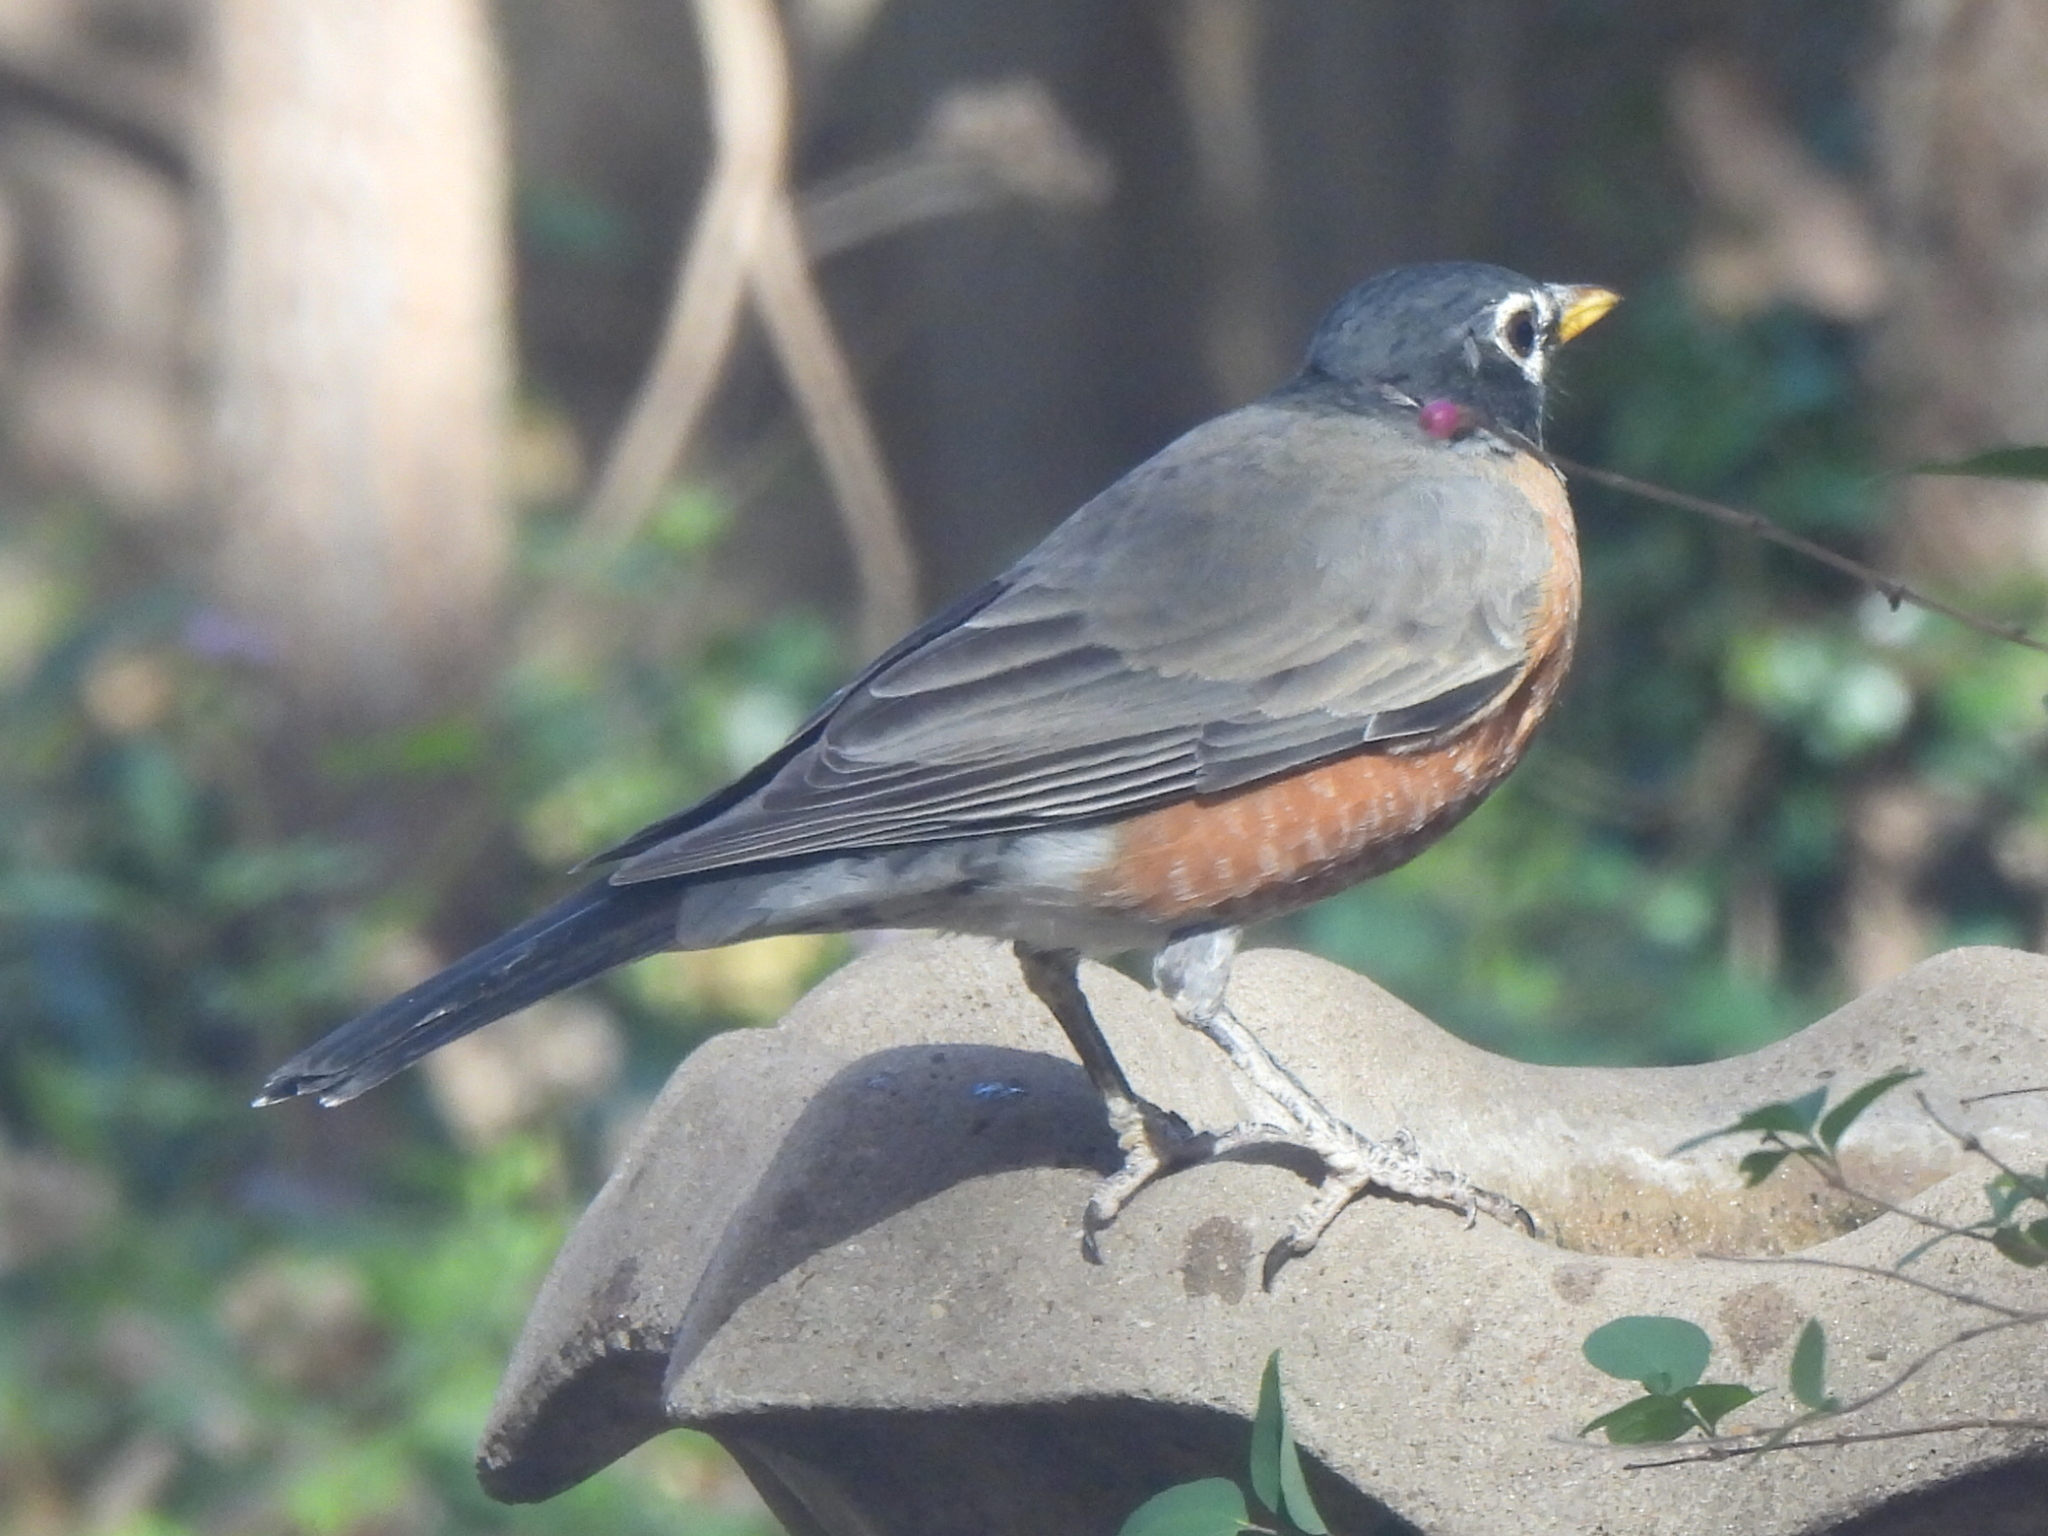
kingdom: Animalia
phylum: Chordata
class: Aves
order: Passeriformes
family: Turdidae
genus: Turdus
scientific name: Turdus migratorius
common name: American robin
